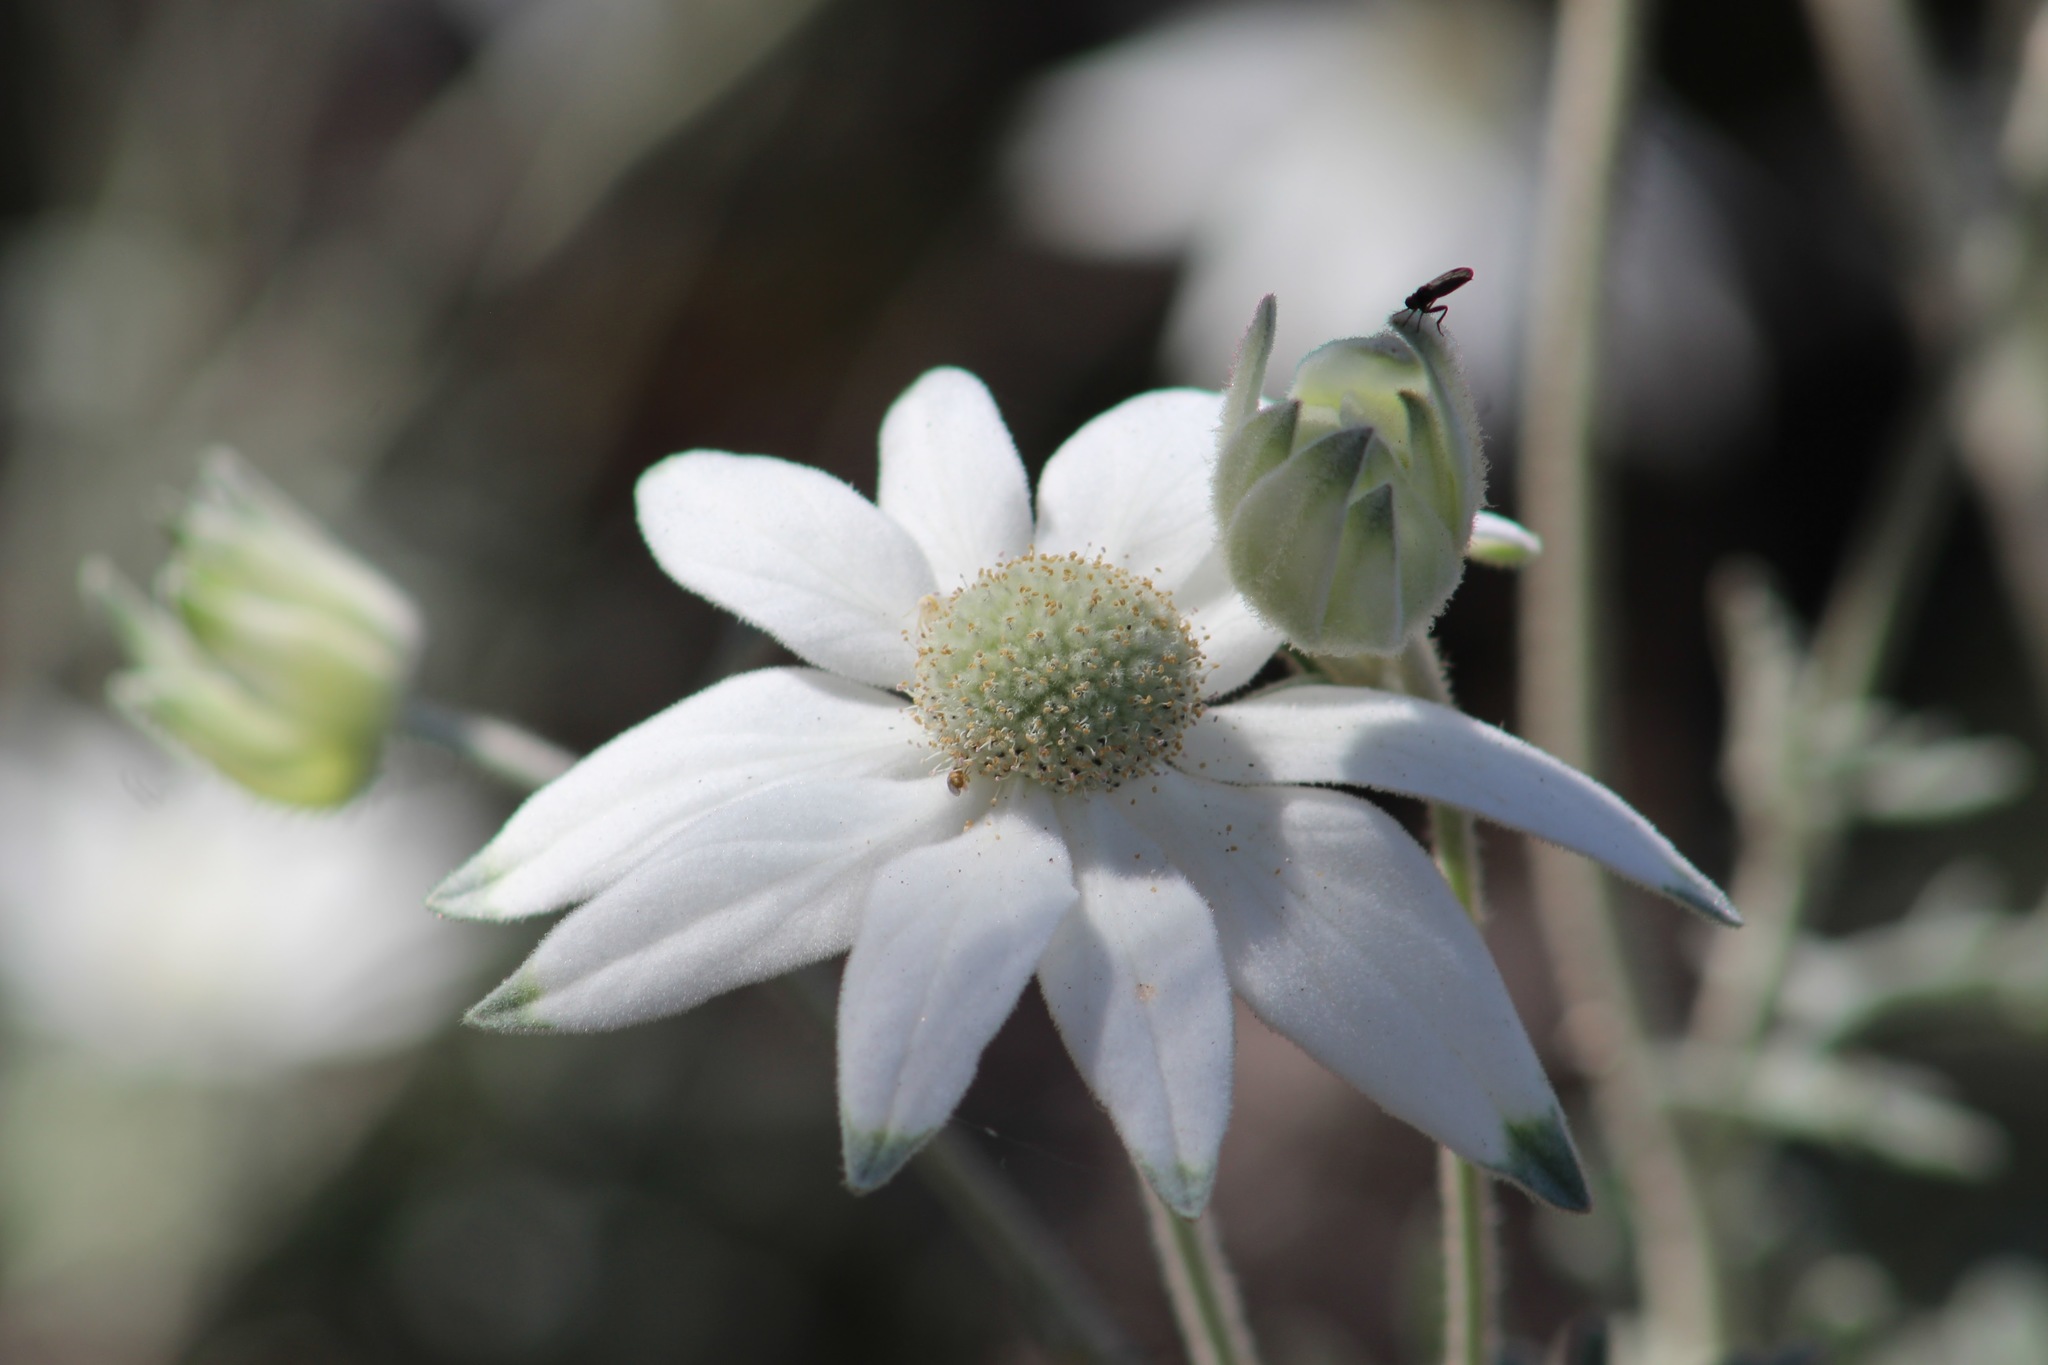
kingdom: Plantae
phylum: Tracheophyta
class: Magnoliopsida
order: Apiales
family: Apiaceae
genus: Actinotus
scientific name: Actinotus helianthi
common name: Flannel-flower
